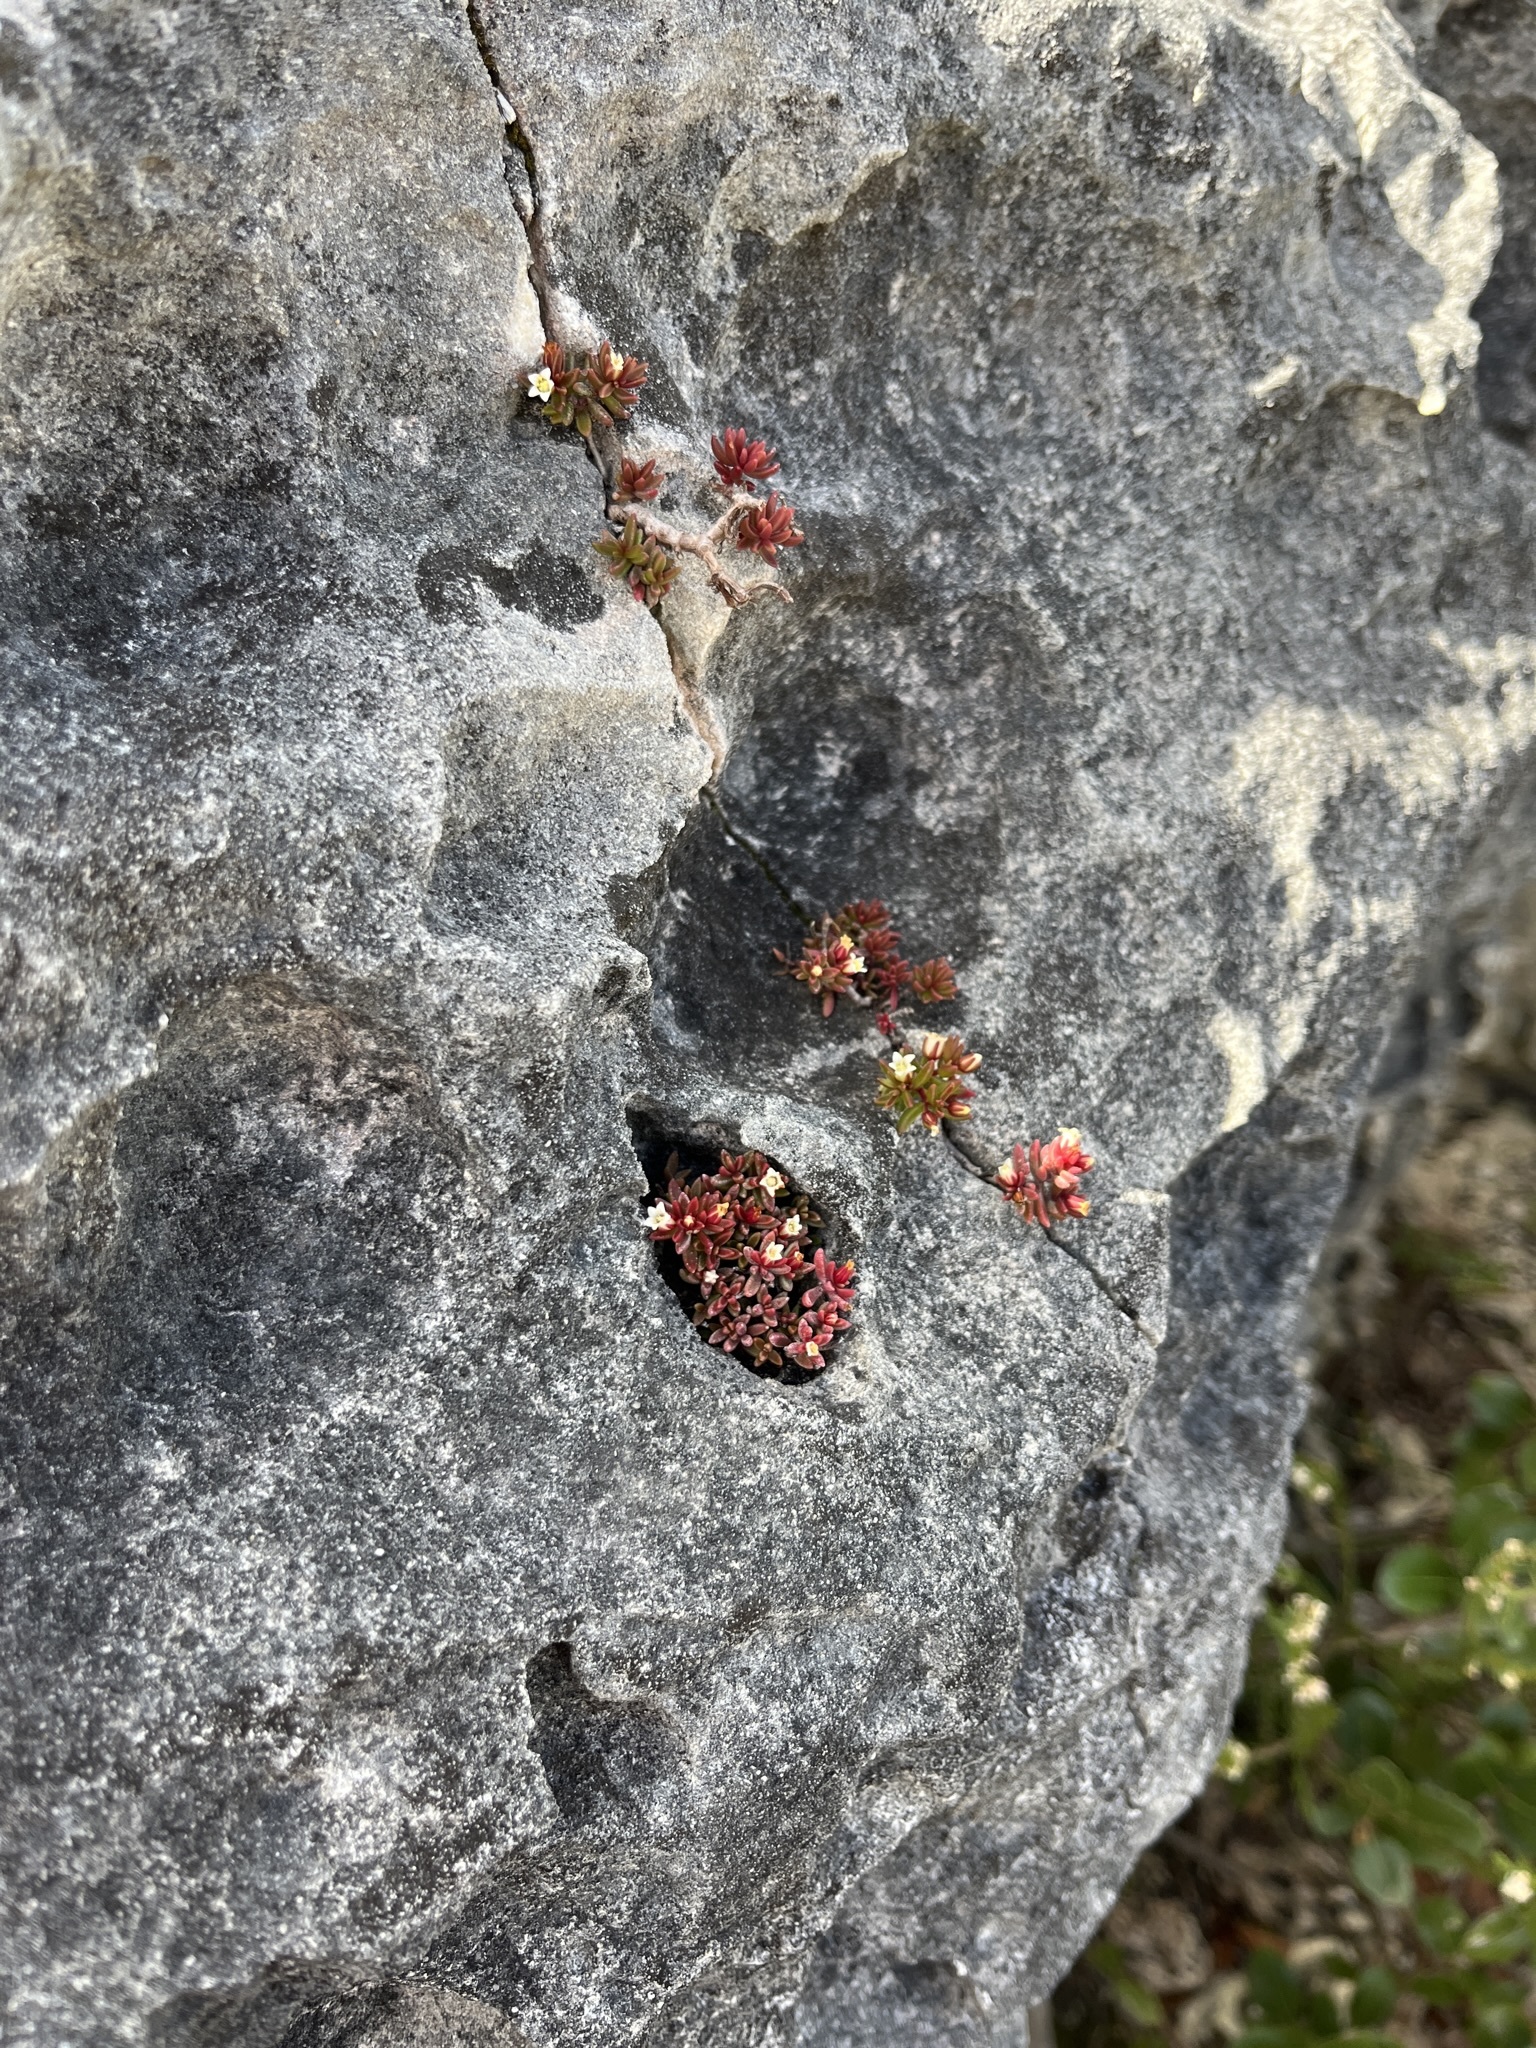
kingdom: Plantae
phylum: Tracheophyta
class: Magnoliopsida
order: Saxifragales
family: Crassulaceae
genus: Crassula
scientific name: Crassula expansa
